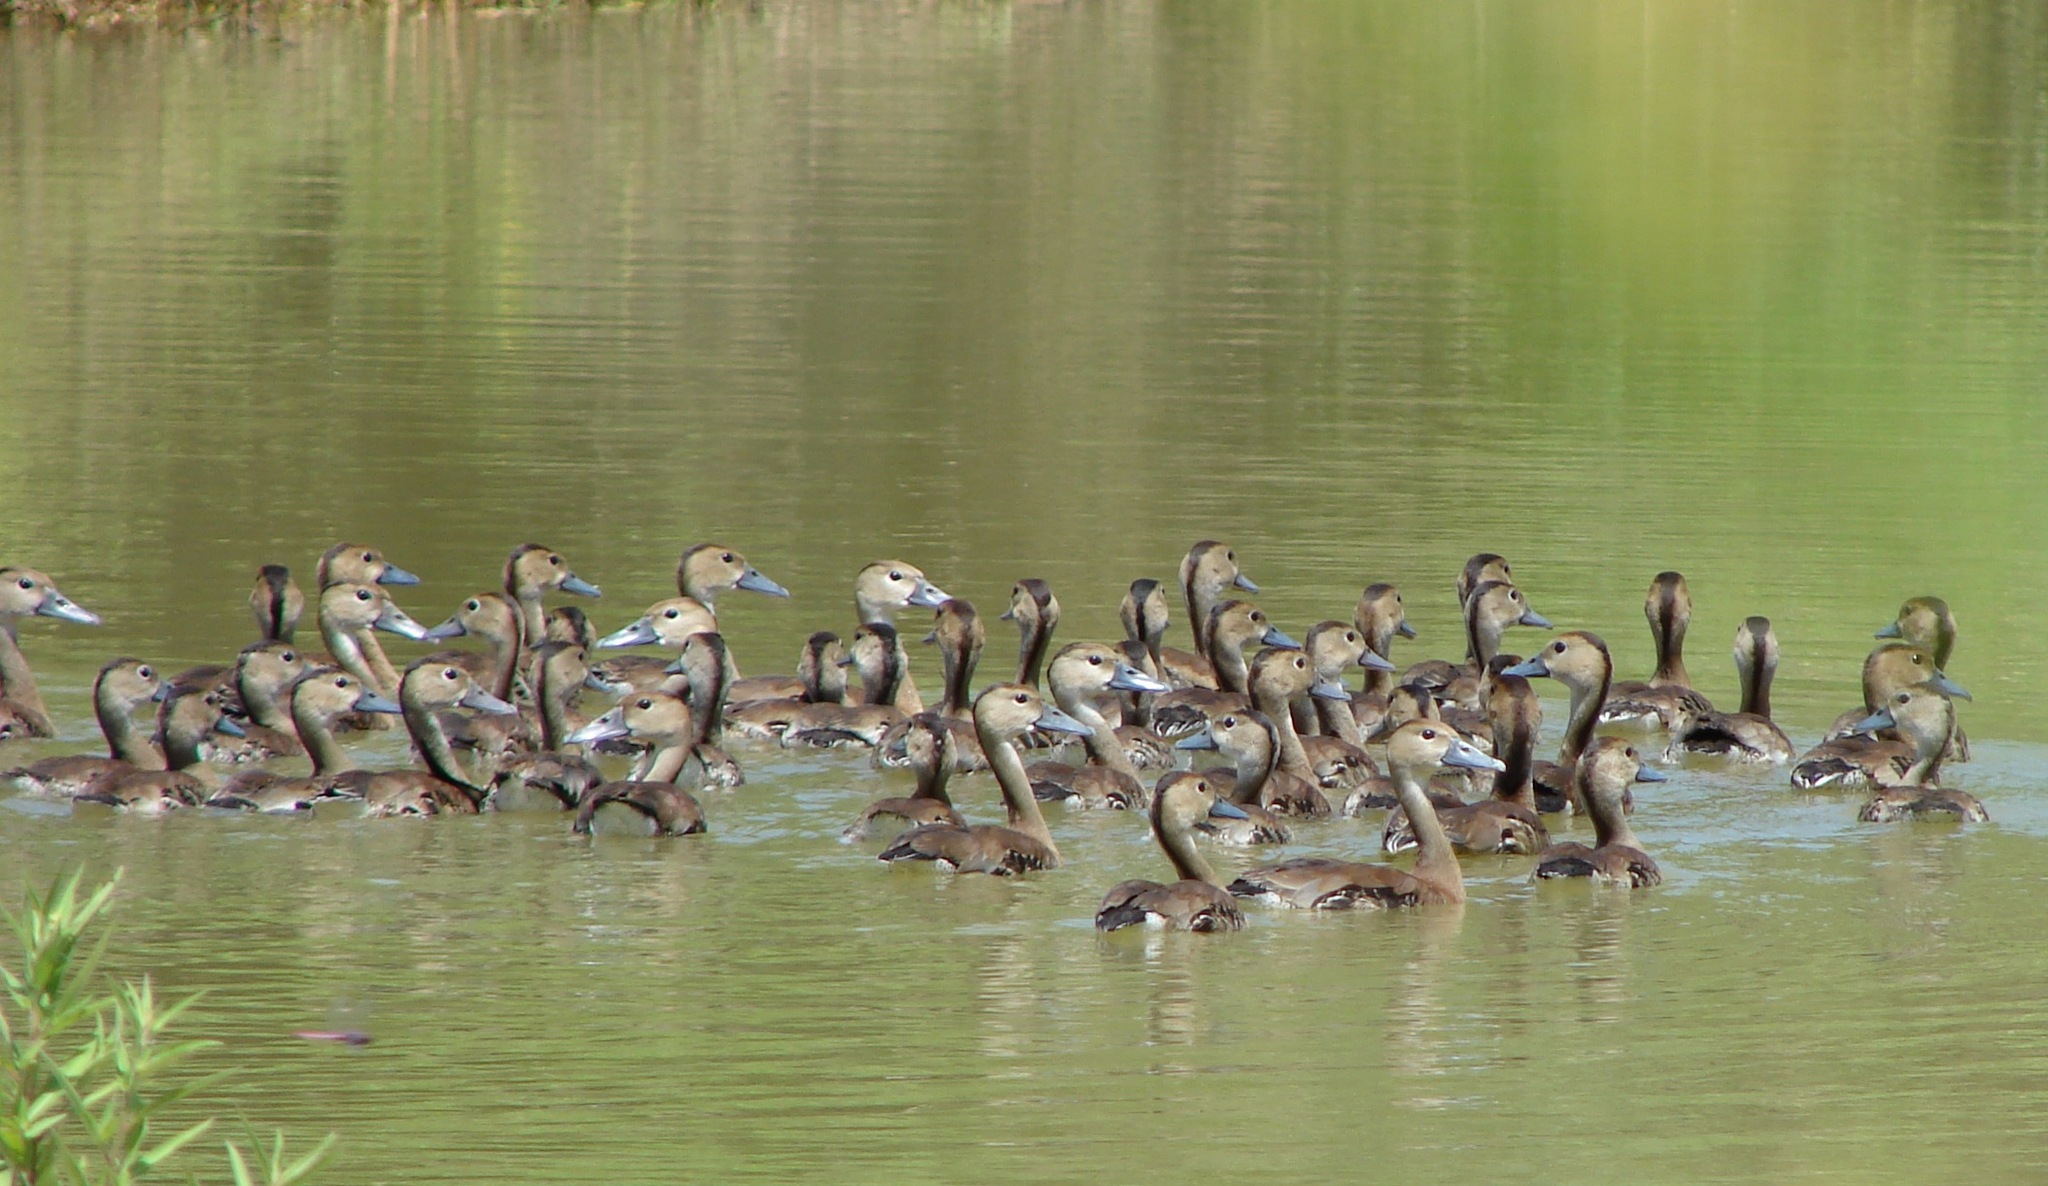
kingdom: Animalia
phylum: Chordata
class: Aves
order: Anseriformes
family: Anatidae
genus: Dendrocygna
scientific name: Dendrocygna autumnalis
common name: Black-bellied whistling duck
